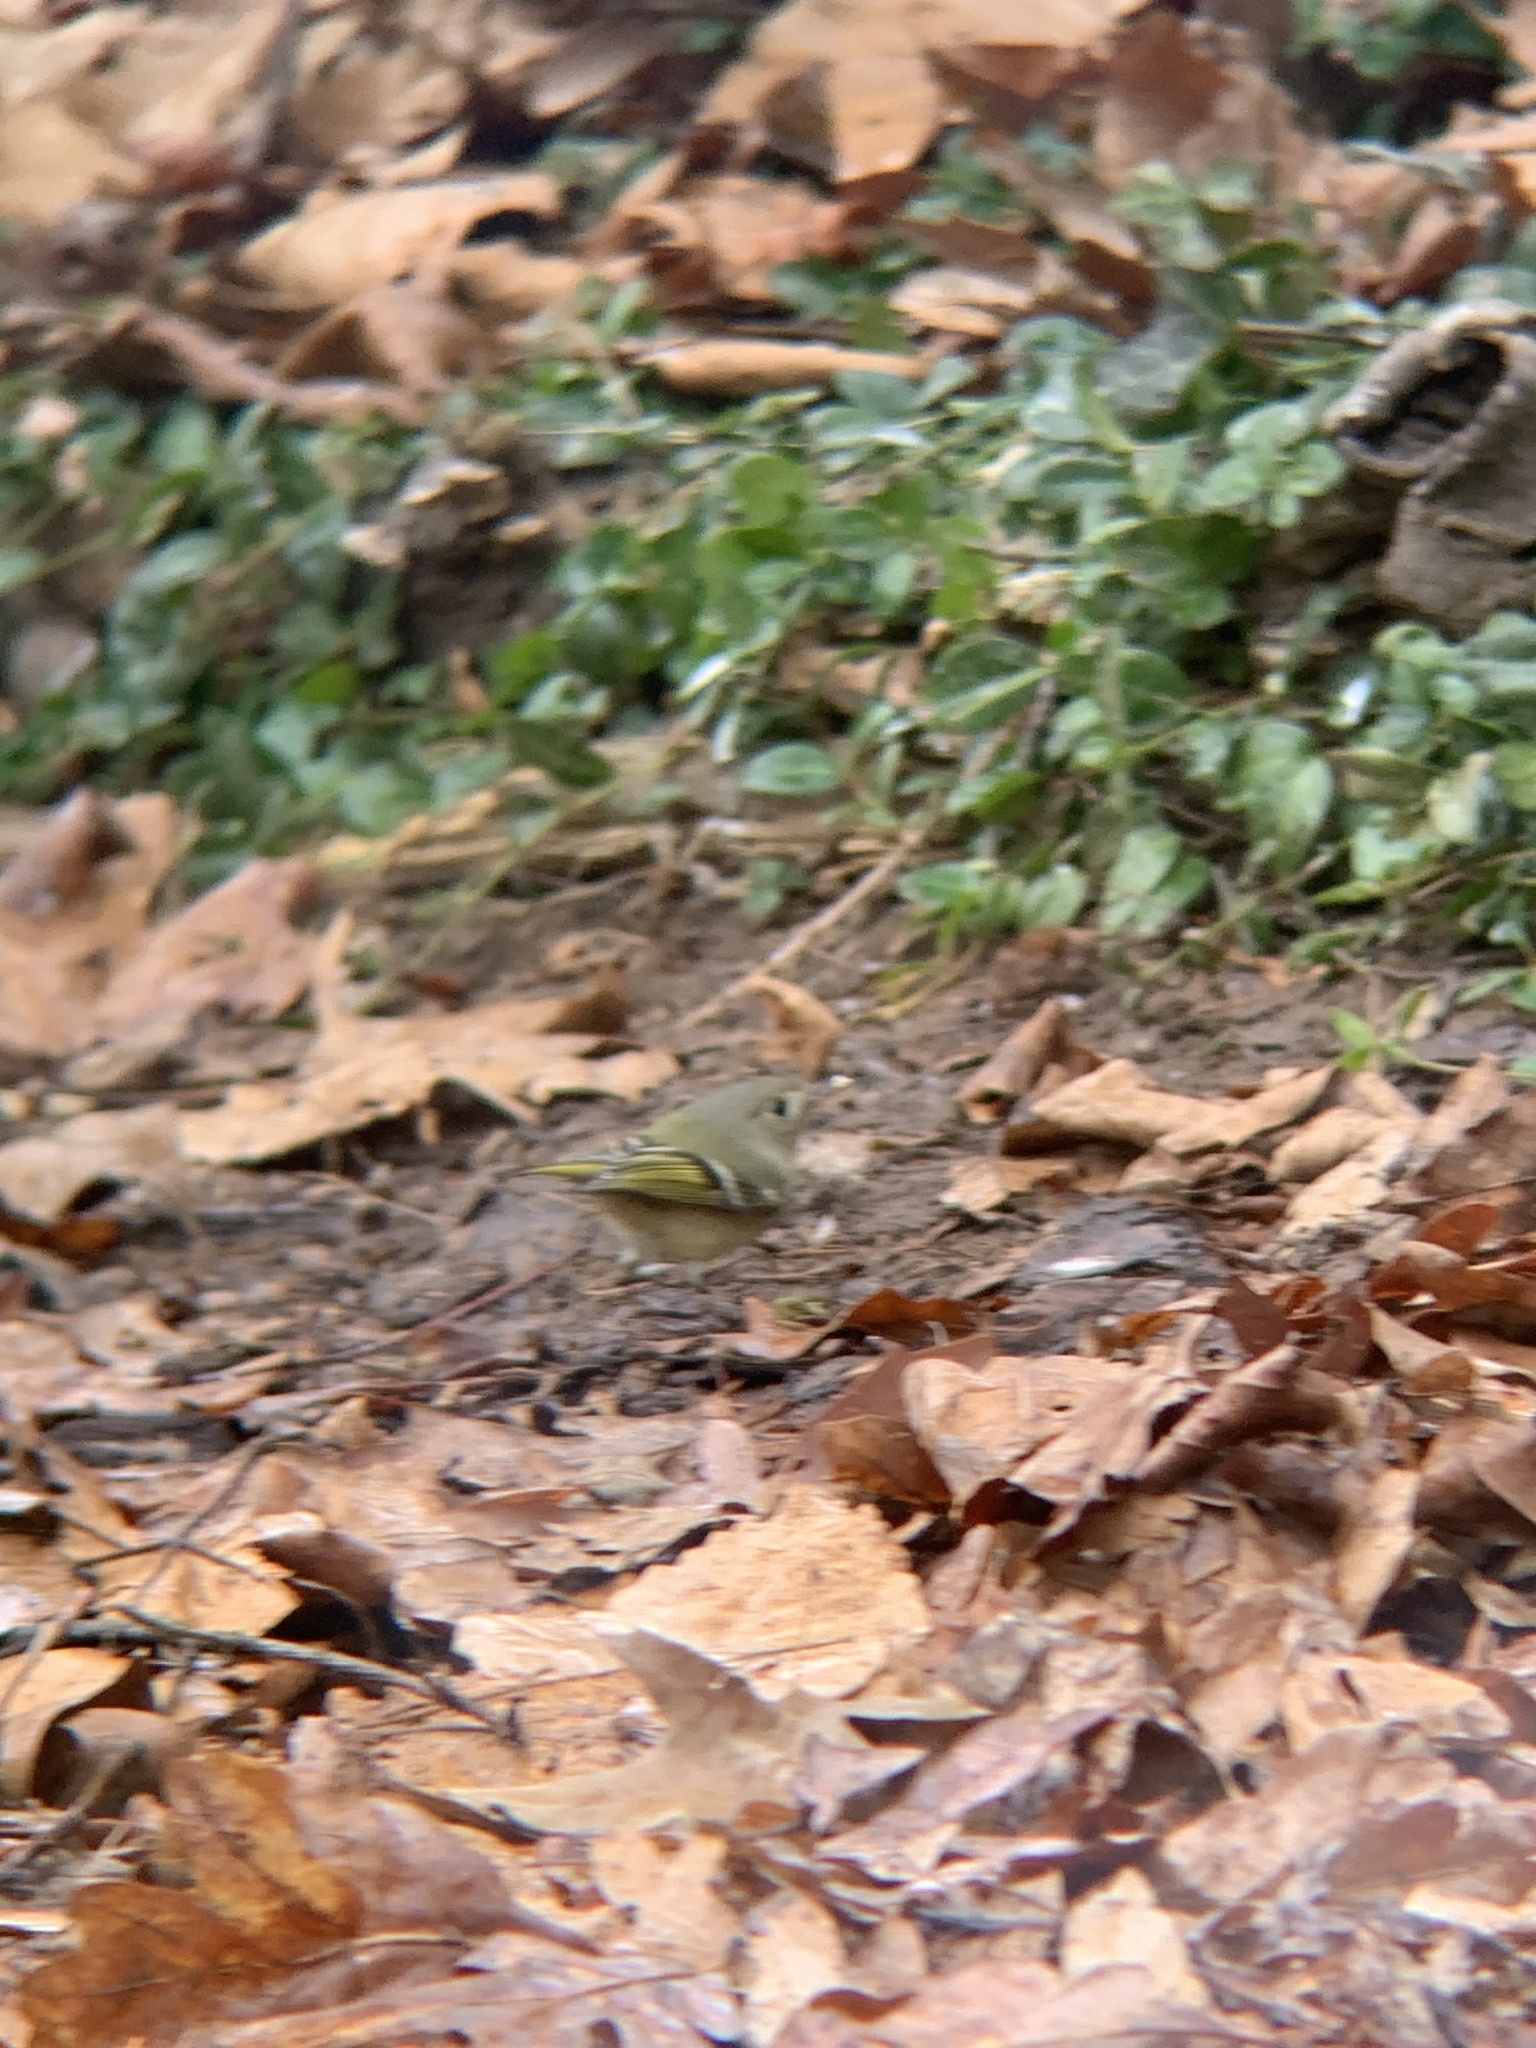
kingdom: Animalia
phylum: Chordata
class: Aves
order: Passeriformes
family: Regulidae
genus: Regulus
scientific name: Regulus calendula
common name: Ruby-crowned kinglet
